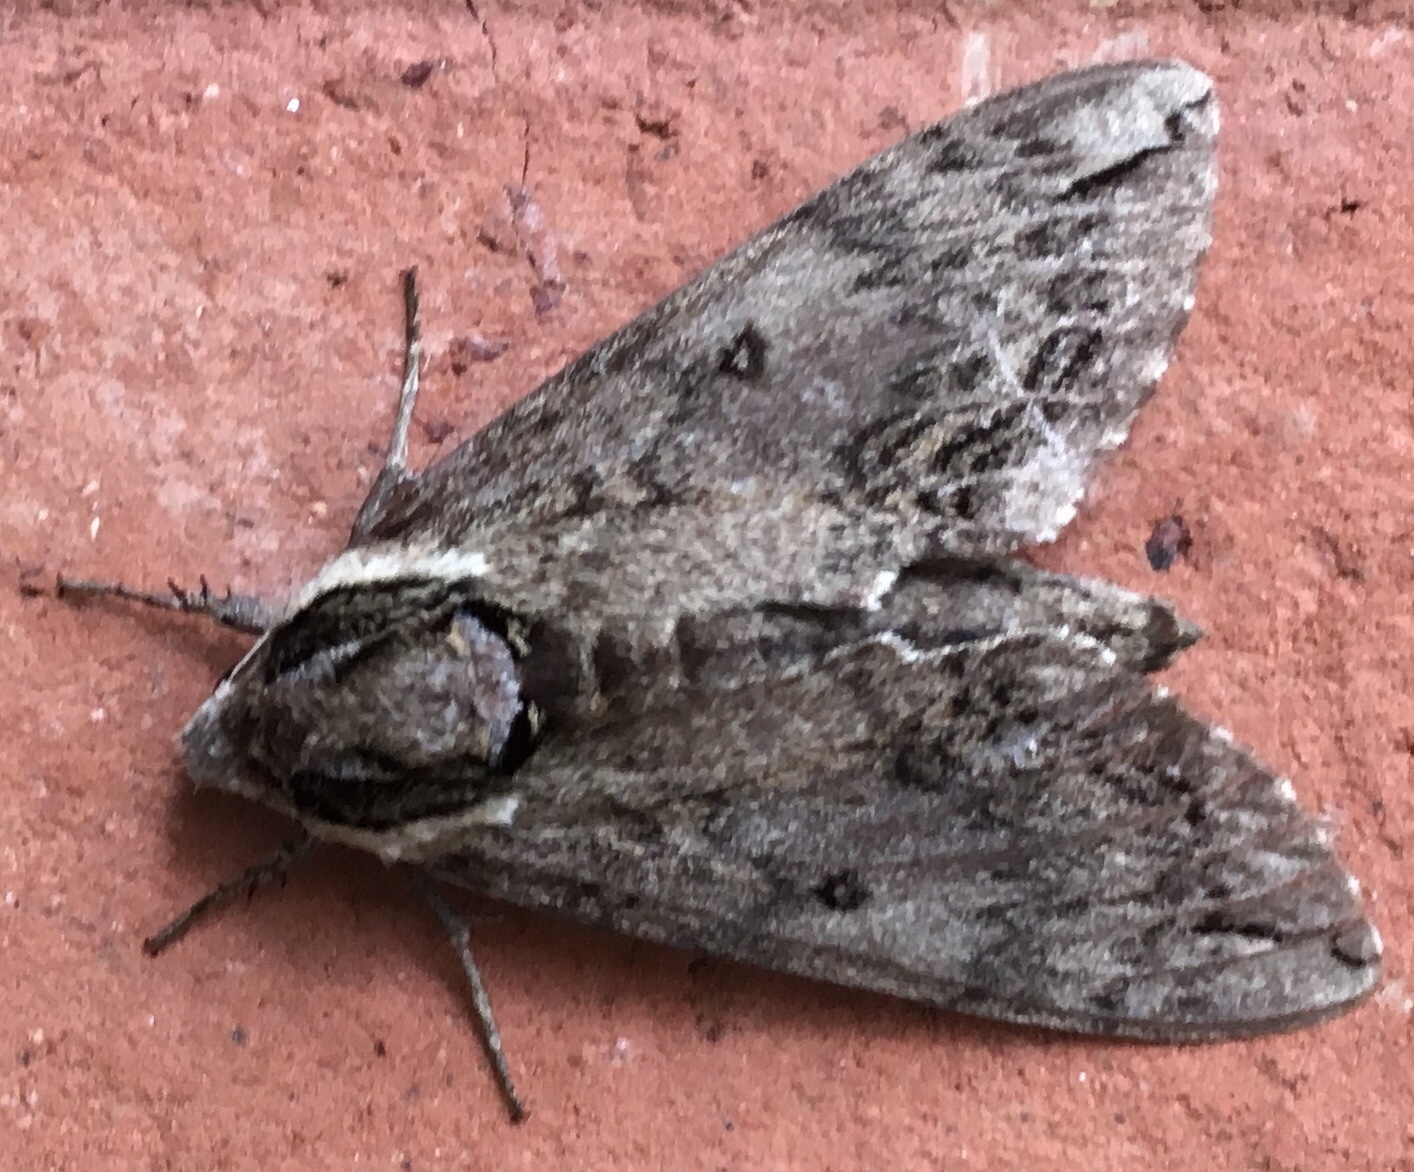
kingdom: Animalia
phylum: Arthropoda
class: Insecta
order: Lepidoptera
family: Sphingidae
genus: Ceratomia
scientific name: Ceratomia catalpae
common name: Catalpa hornworm
